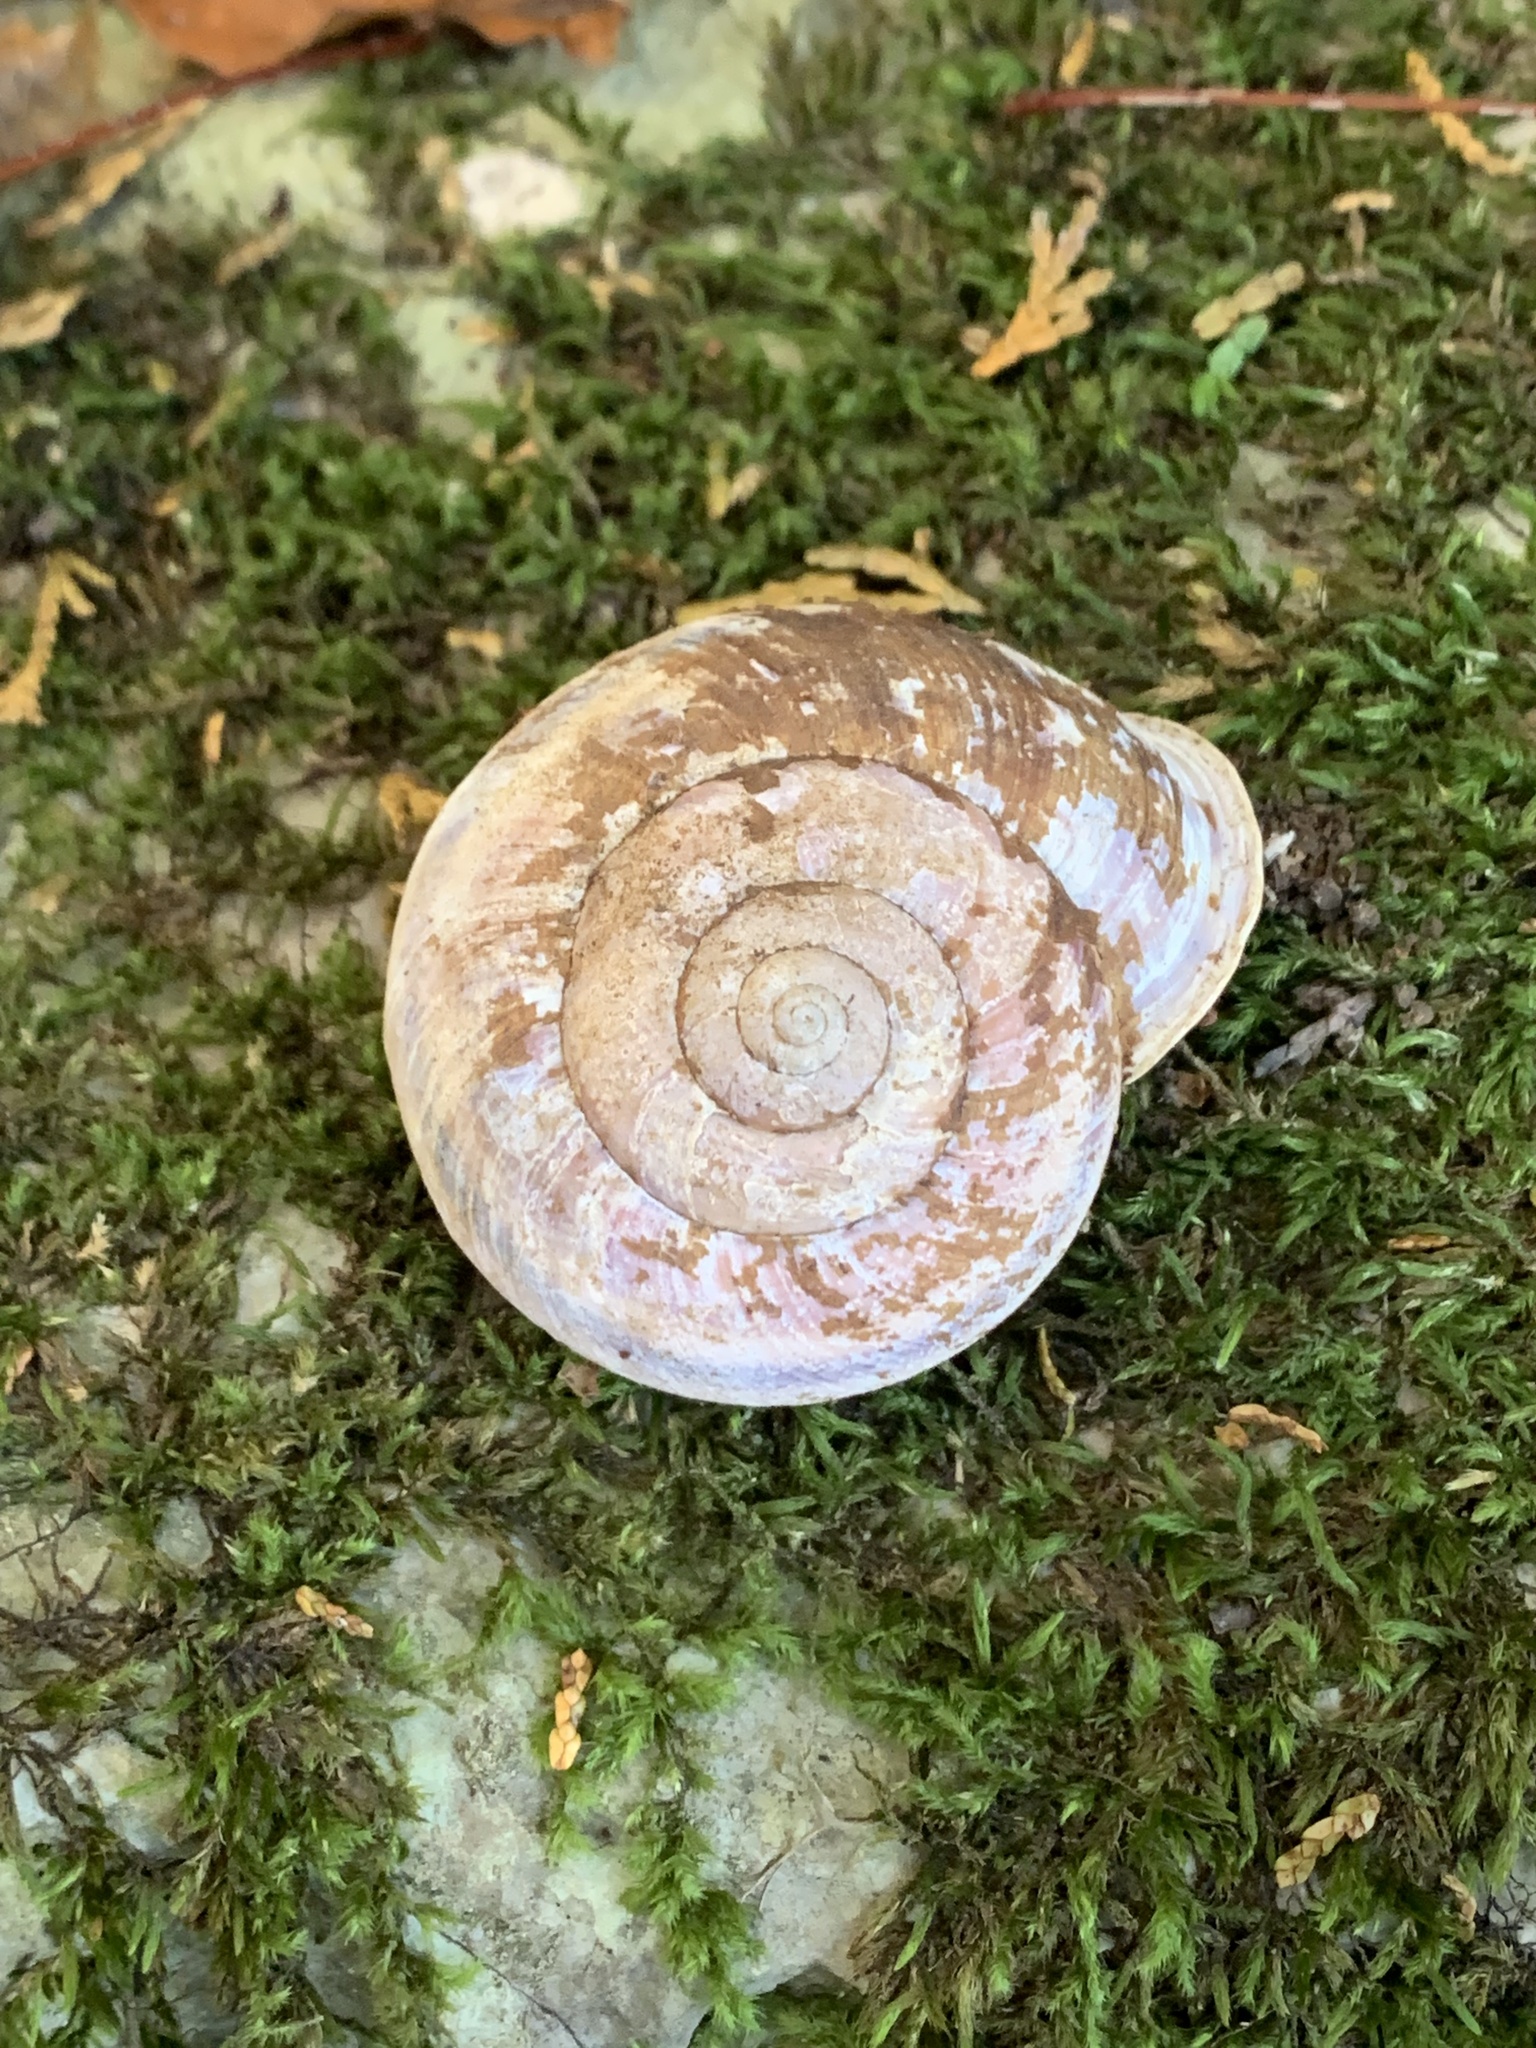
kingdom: Animalia
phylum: Mollusca
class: Gastropoda
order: Stylommatophora
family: Camaenidae
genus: Euhadra
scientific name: Euhadra senckenbergiana
